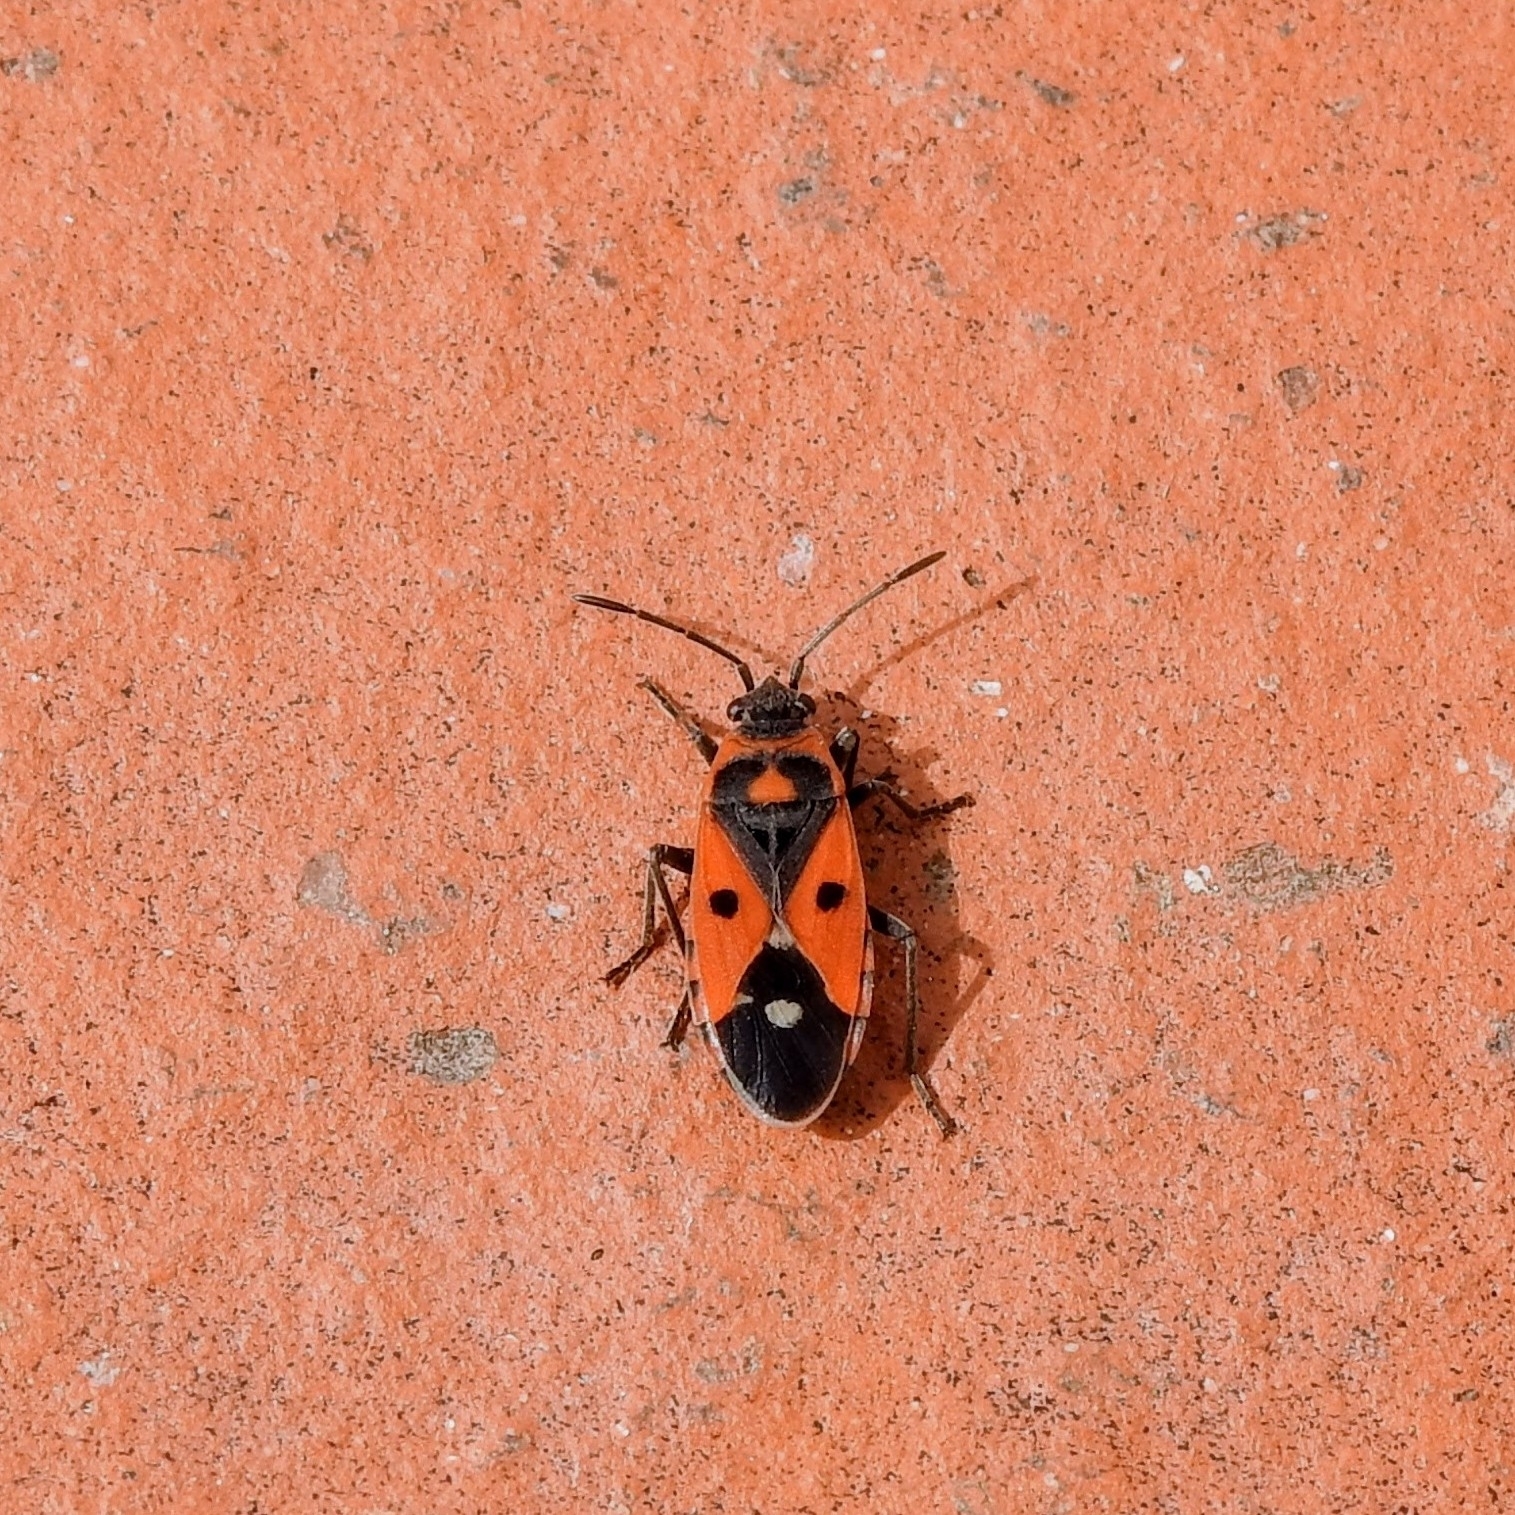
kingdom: Animalia
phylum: Arthropoda
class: Insecta
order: Hemiptera
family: Lygaeidae
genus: Melanocoryphus
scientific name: Melanocoryphus albomaculatus
